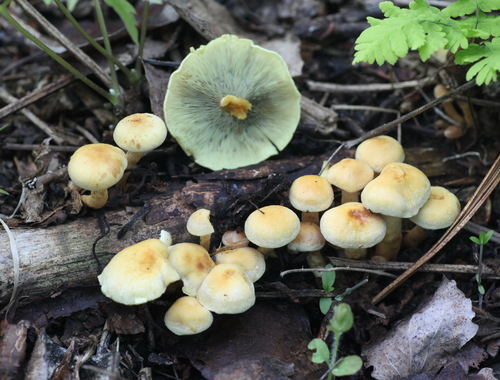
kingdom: Fungi
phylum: Basidiomycota
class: Agaricomycetes
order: Agaricales
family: Strophariaceae
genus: Hypholoma
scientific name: Hypholoma fasciculare
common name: Sulphur tuft
